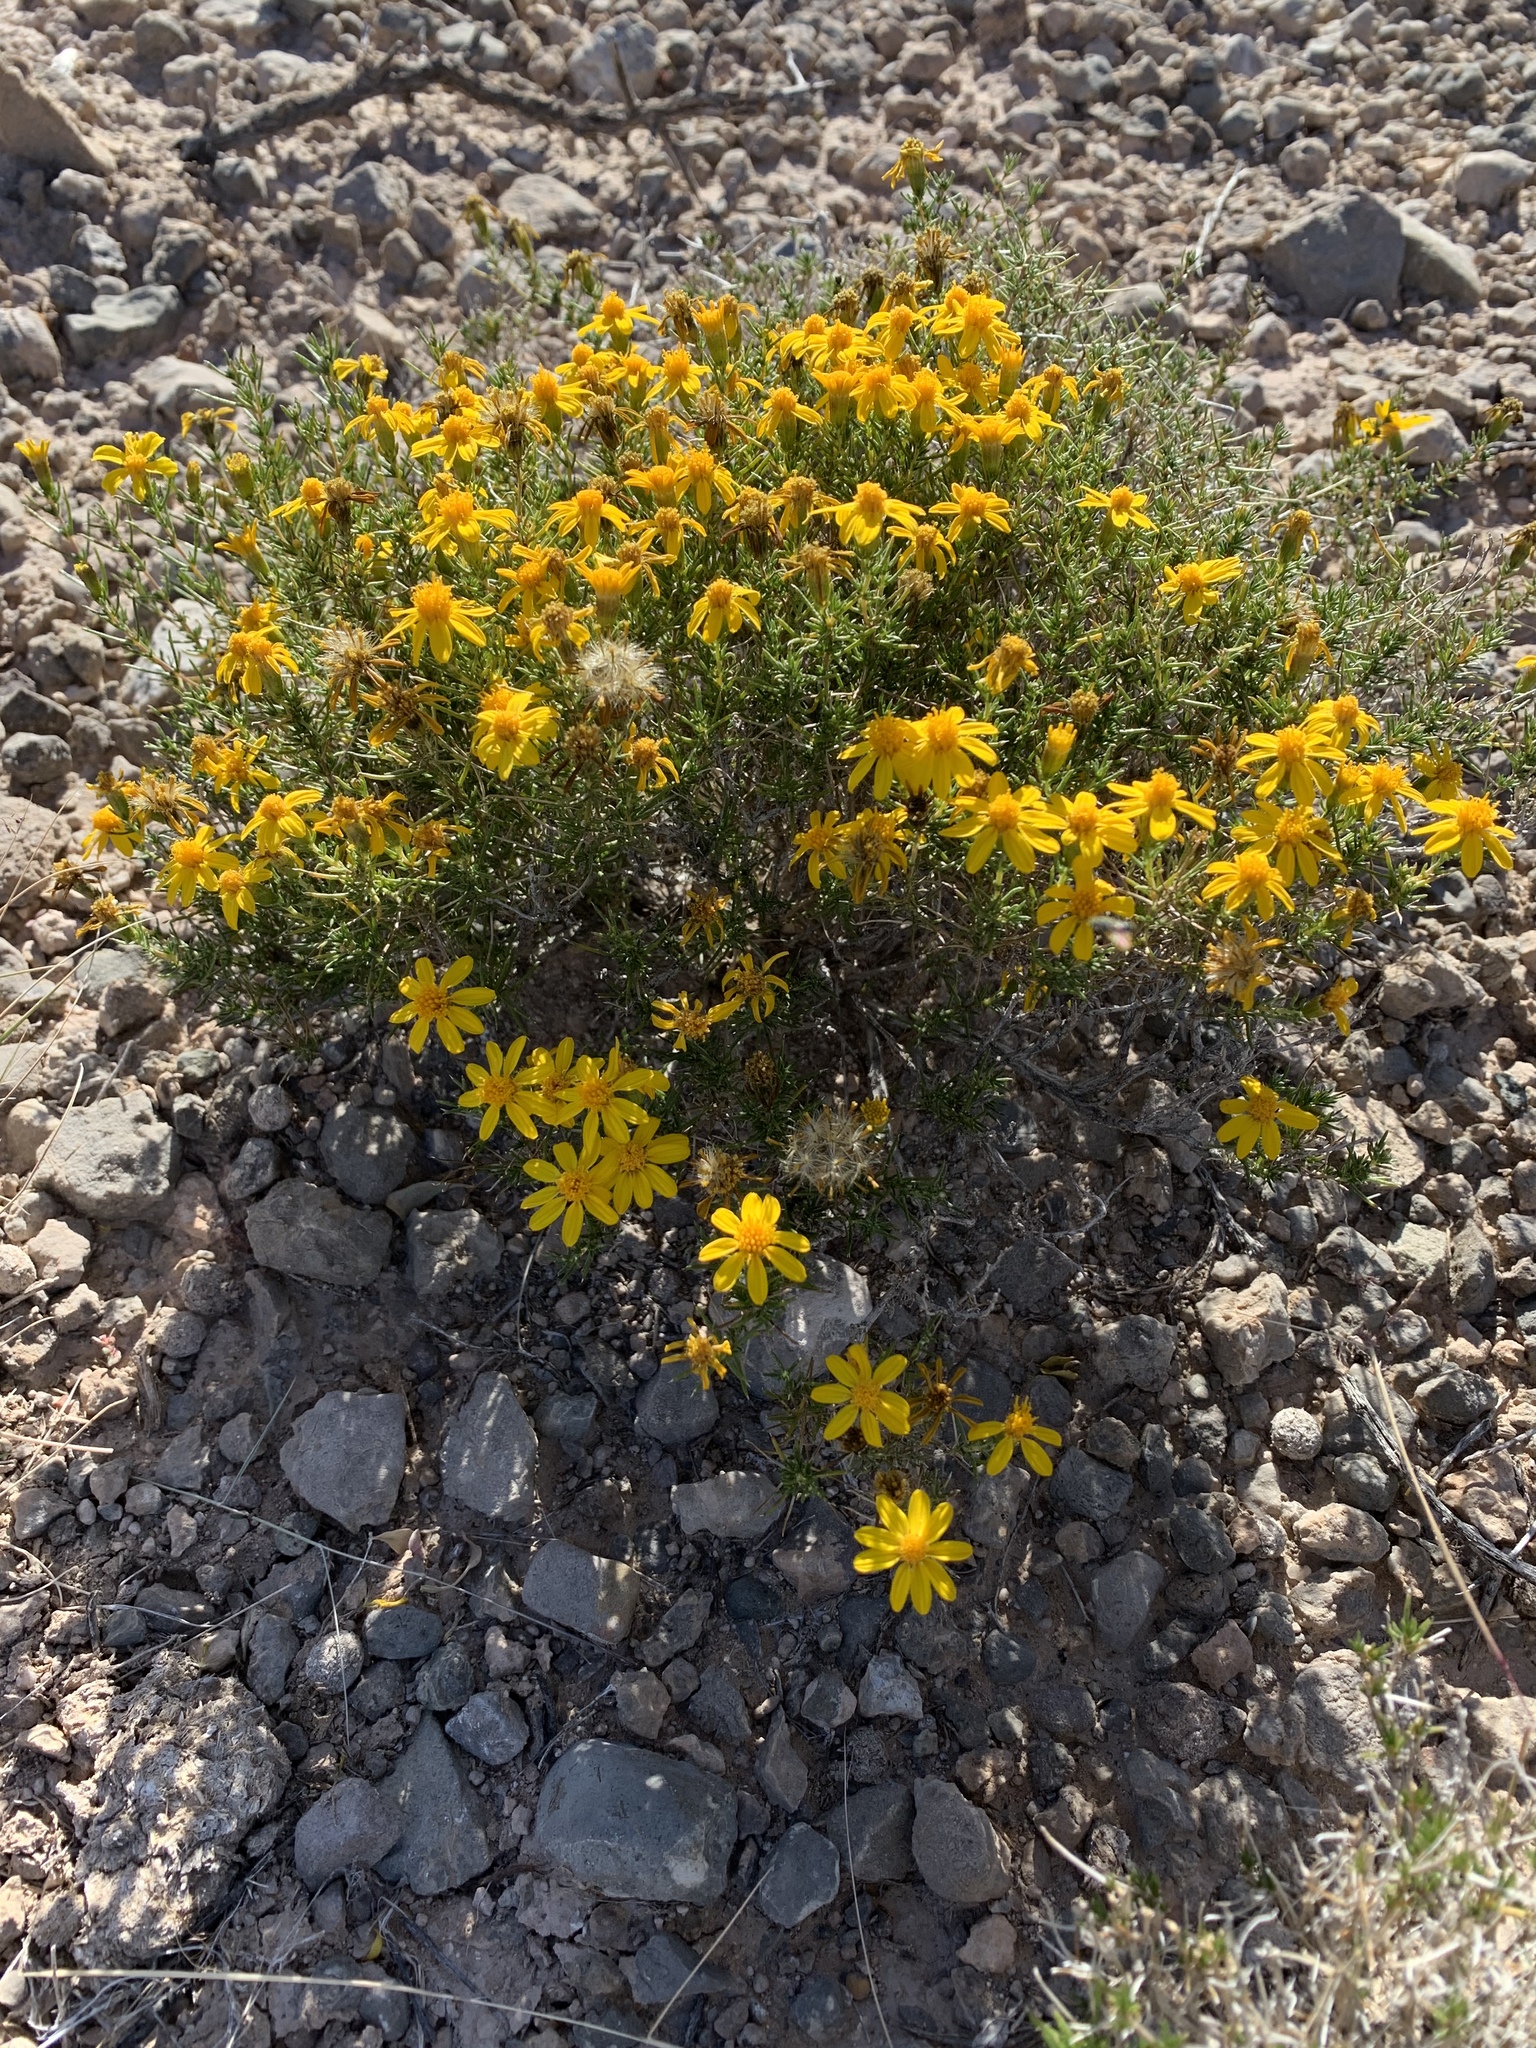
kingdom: Plantae
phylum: Tracheophyta
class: Magnoliopsida
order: Asterales
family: Asteraceae
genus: Thymophylla
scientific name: Thymophylla acerosa
